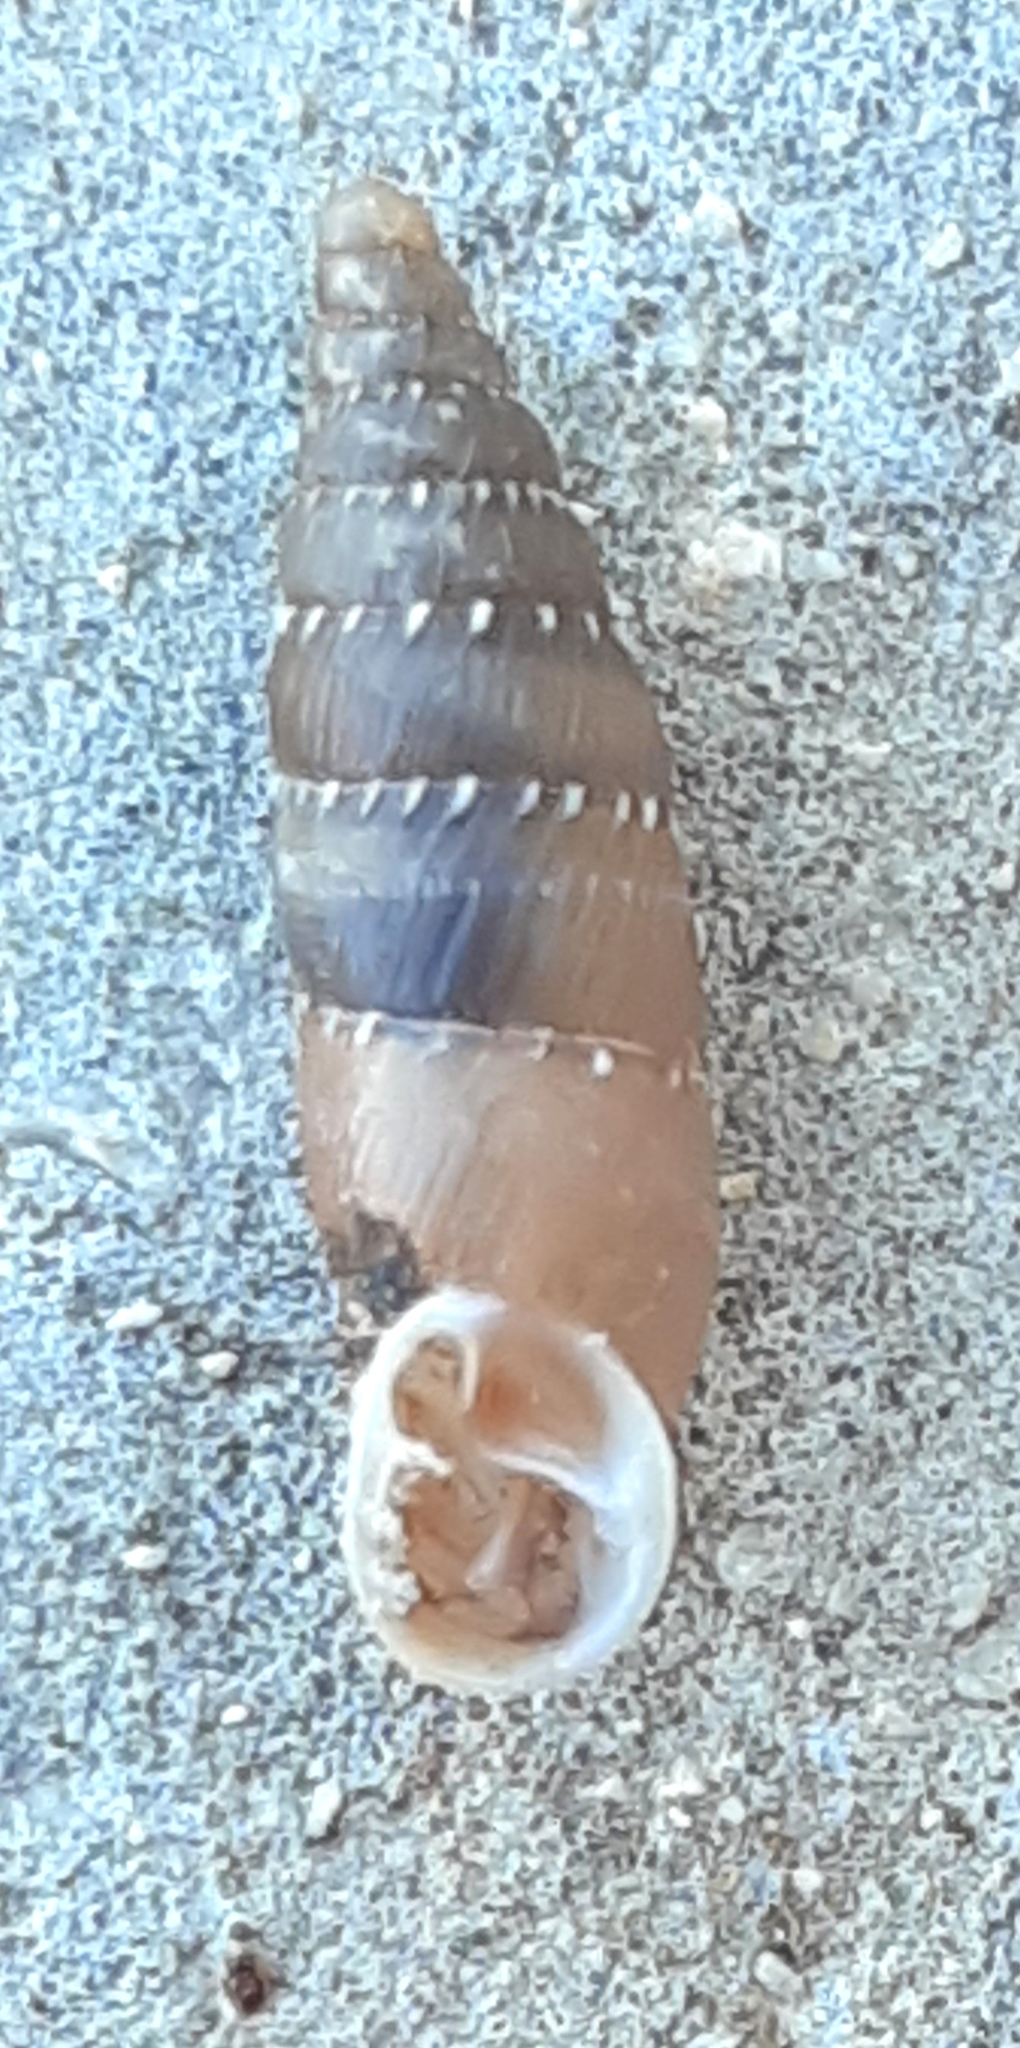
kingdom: Animalia
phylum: Mollusca
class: Gastropoda
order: Stylommatophora
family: Clausiliidae
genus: Gibbularia
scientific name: Gibbularia gibbula
